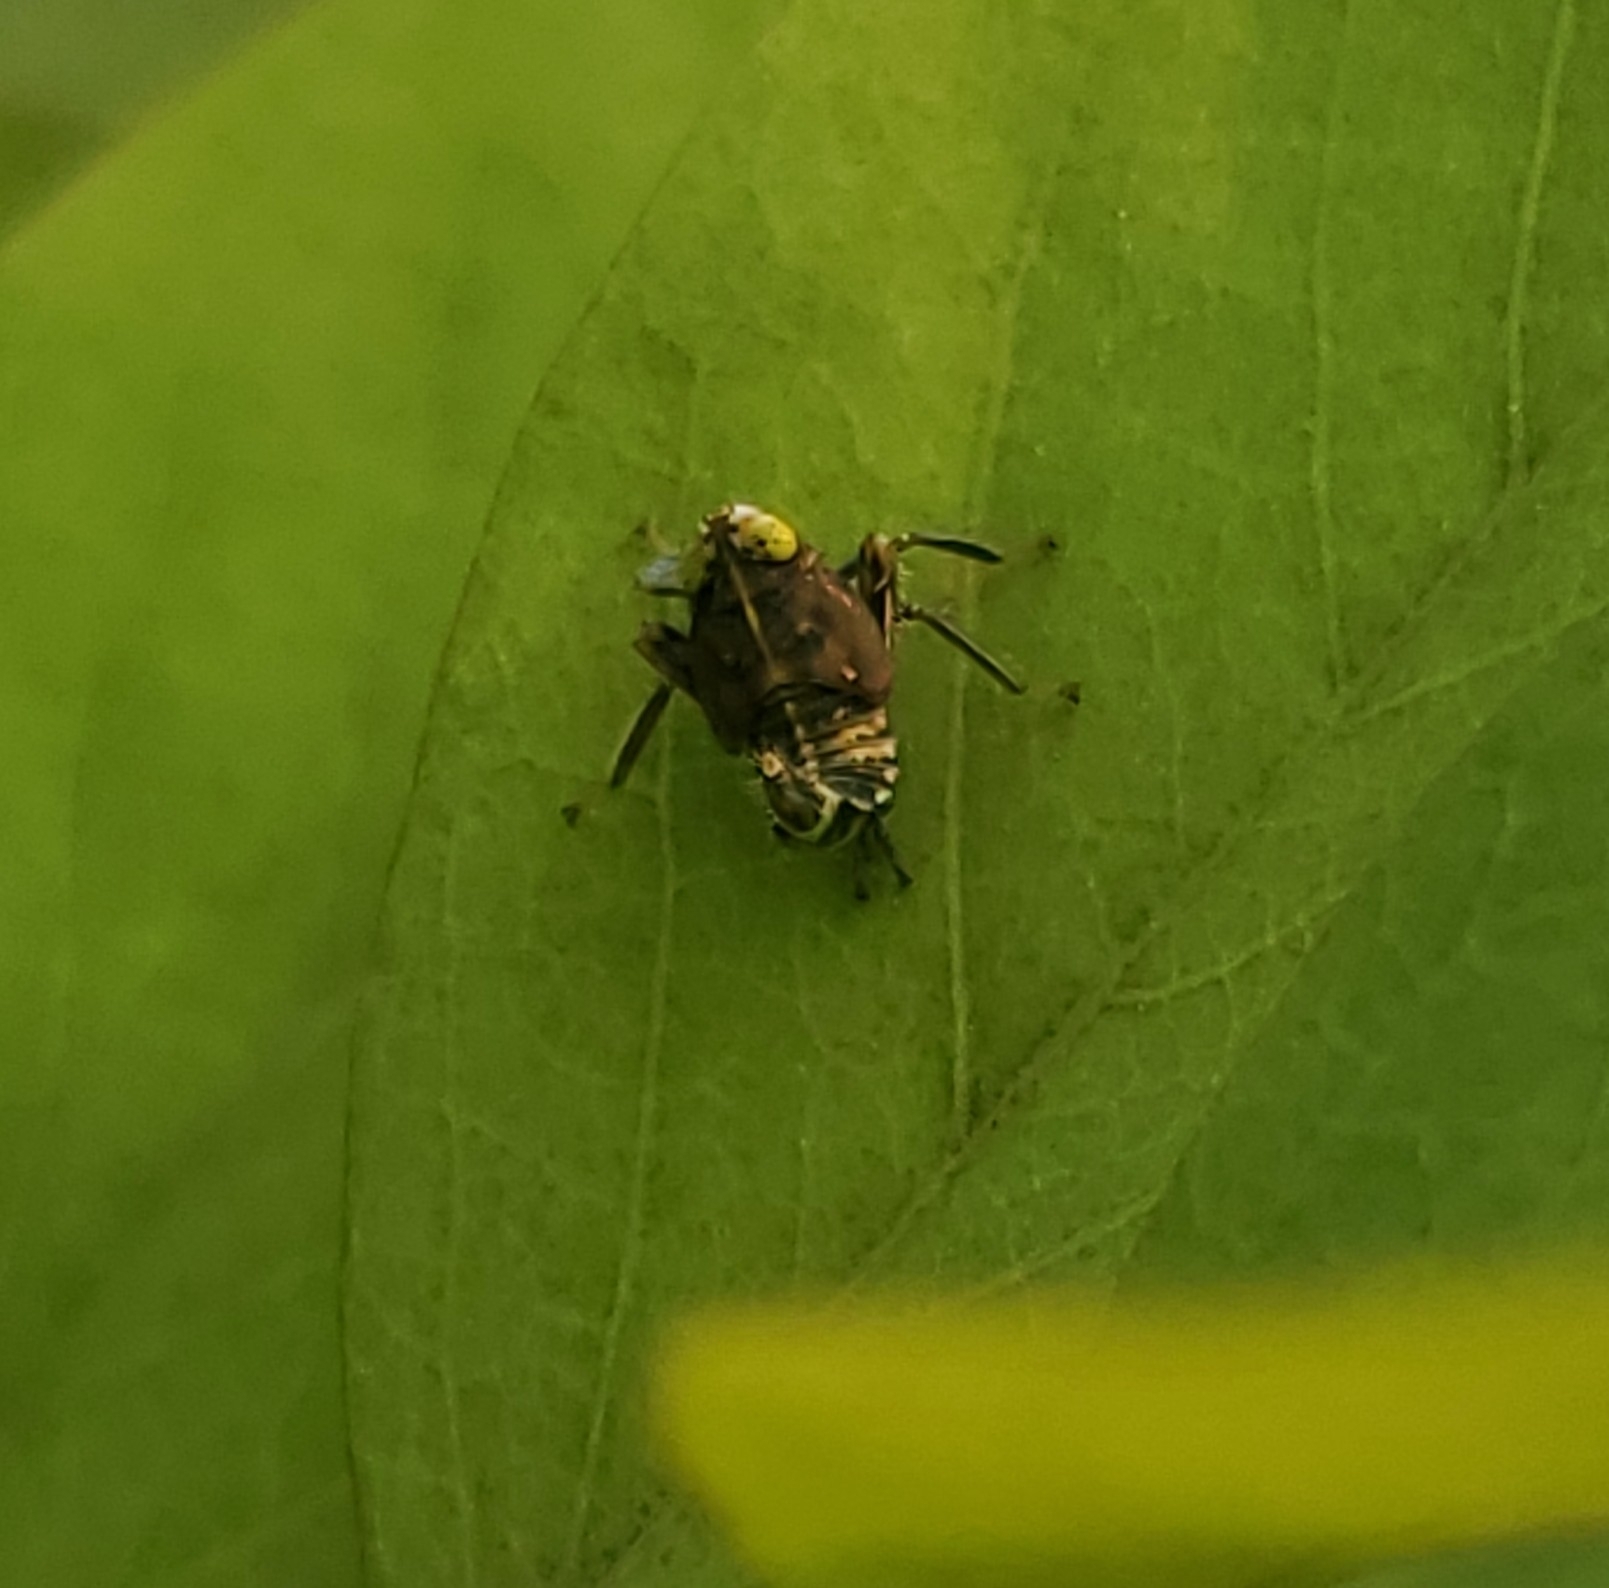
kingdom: Animalia
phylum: Arthropoda
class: Insecta
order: Hemiptera
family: Cicadellidae
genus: Jikradia
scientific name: Jikradia olitoria
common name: Coppery leafhopper
